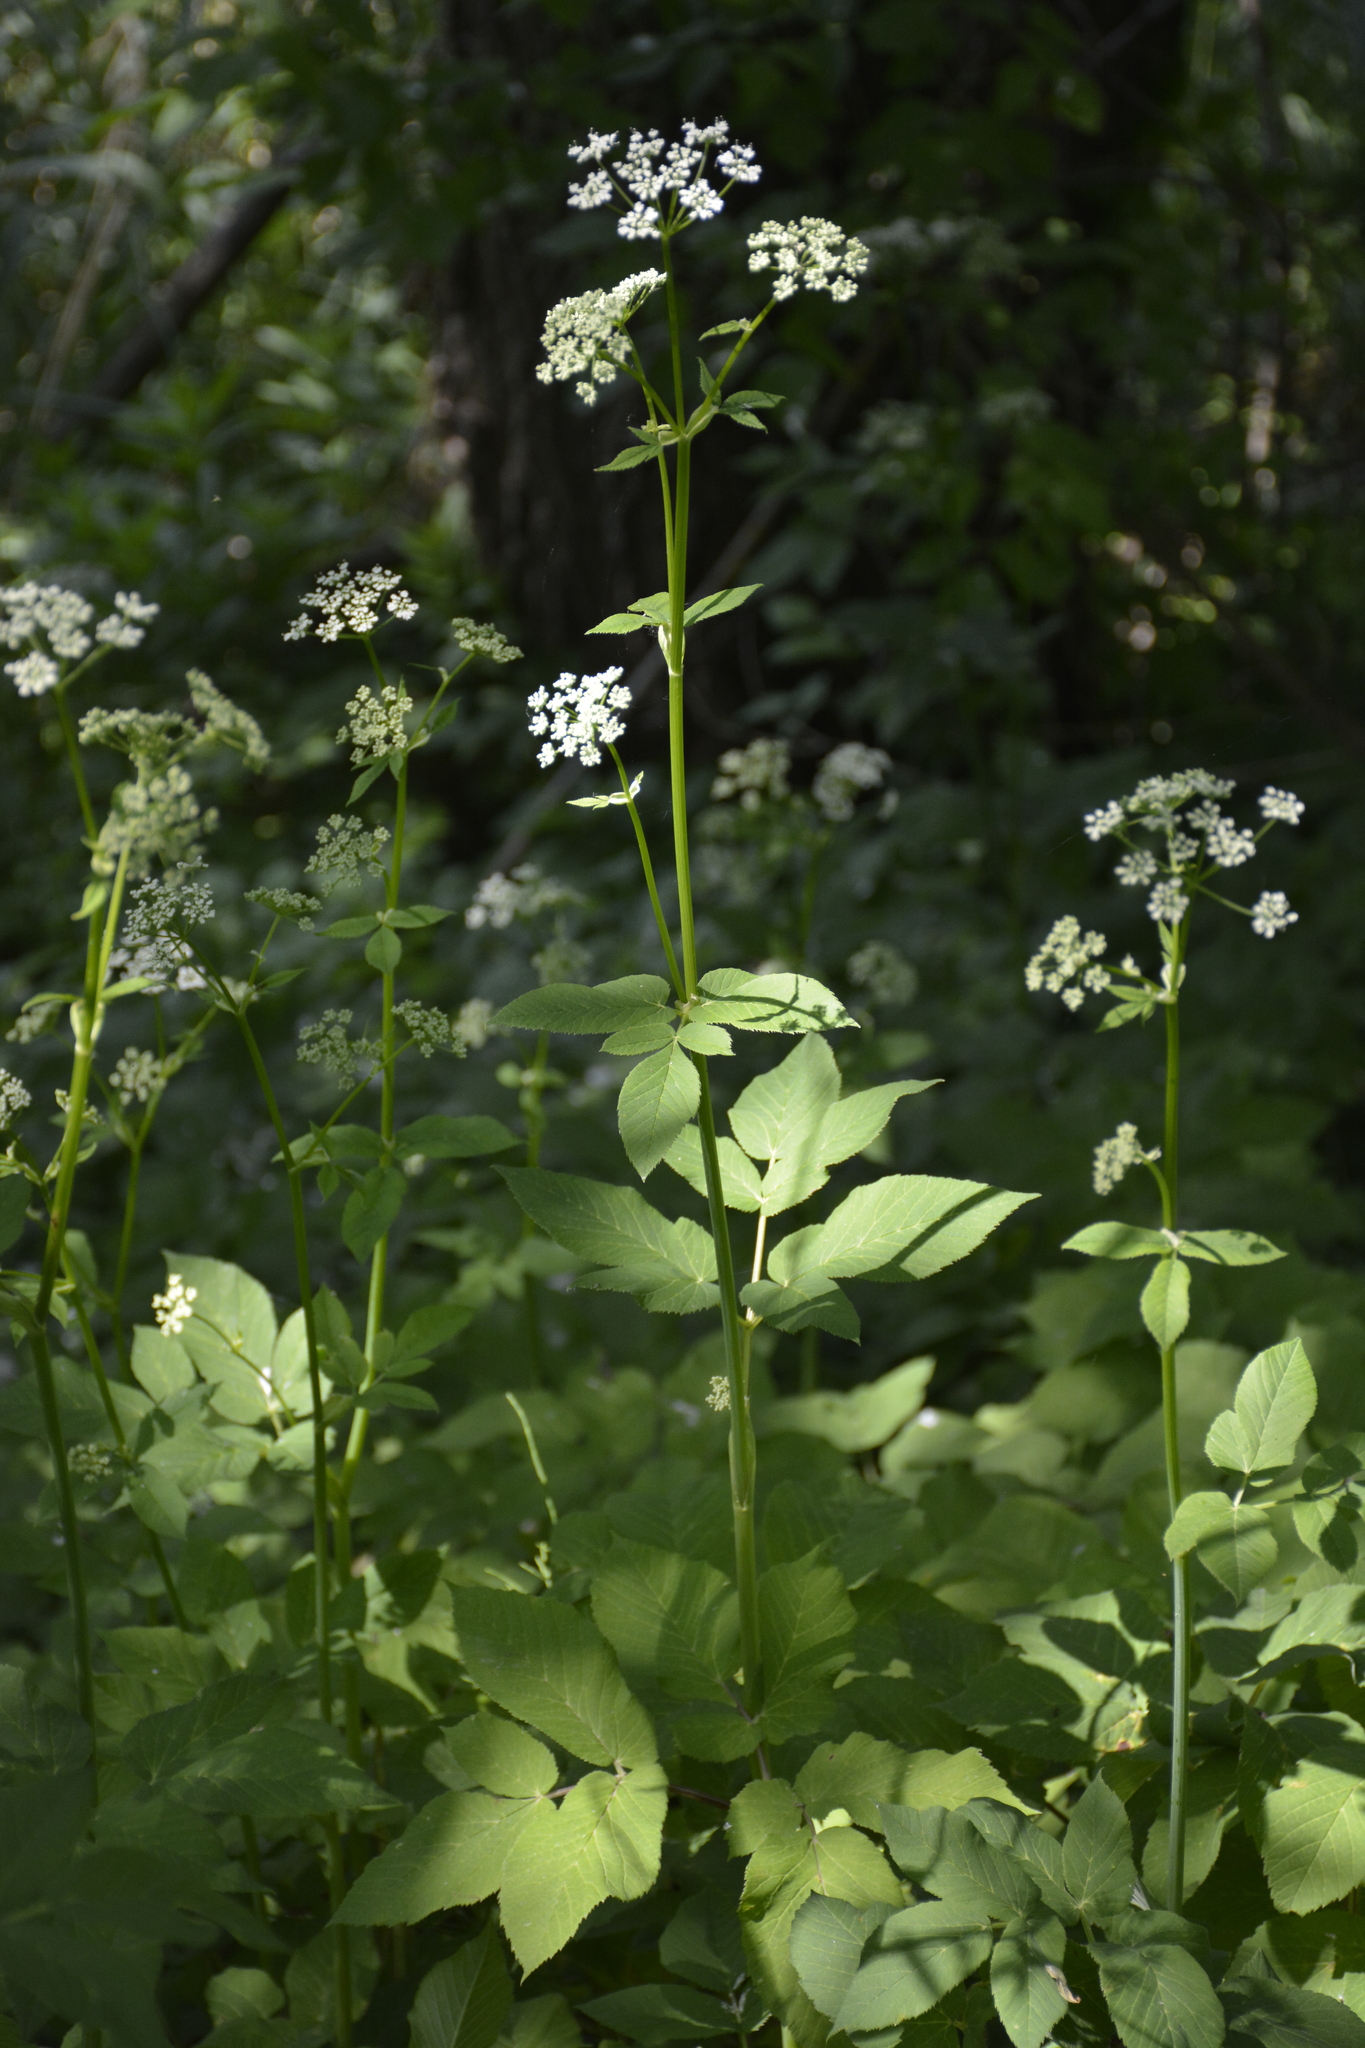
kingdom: Plantae
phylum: Tracheophyta
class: Magnoliopsida
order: Apiales
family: Apiaceae
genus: Aegopodium
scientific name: Aegopodium podagraria
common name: Ground-elder
